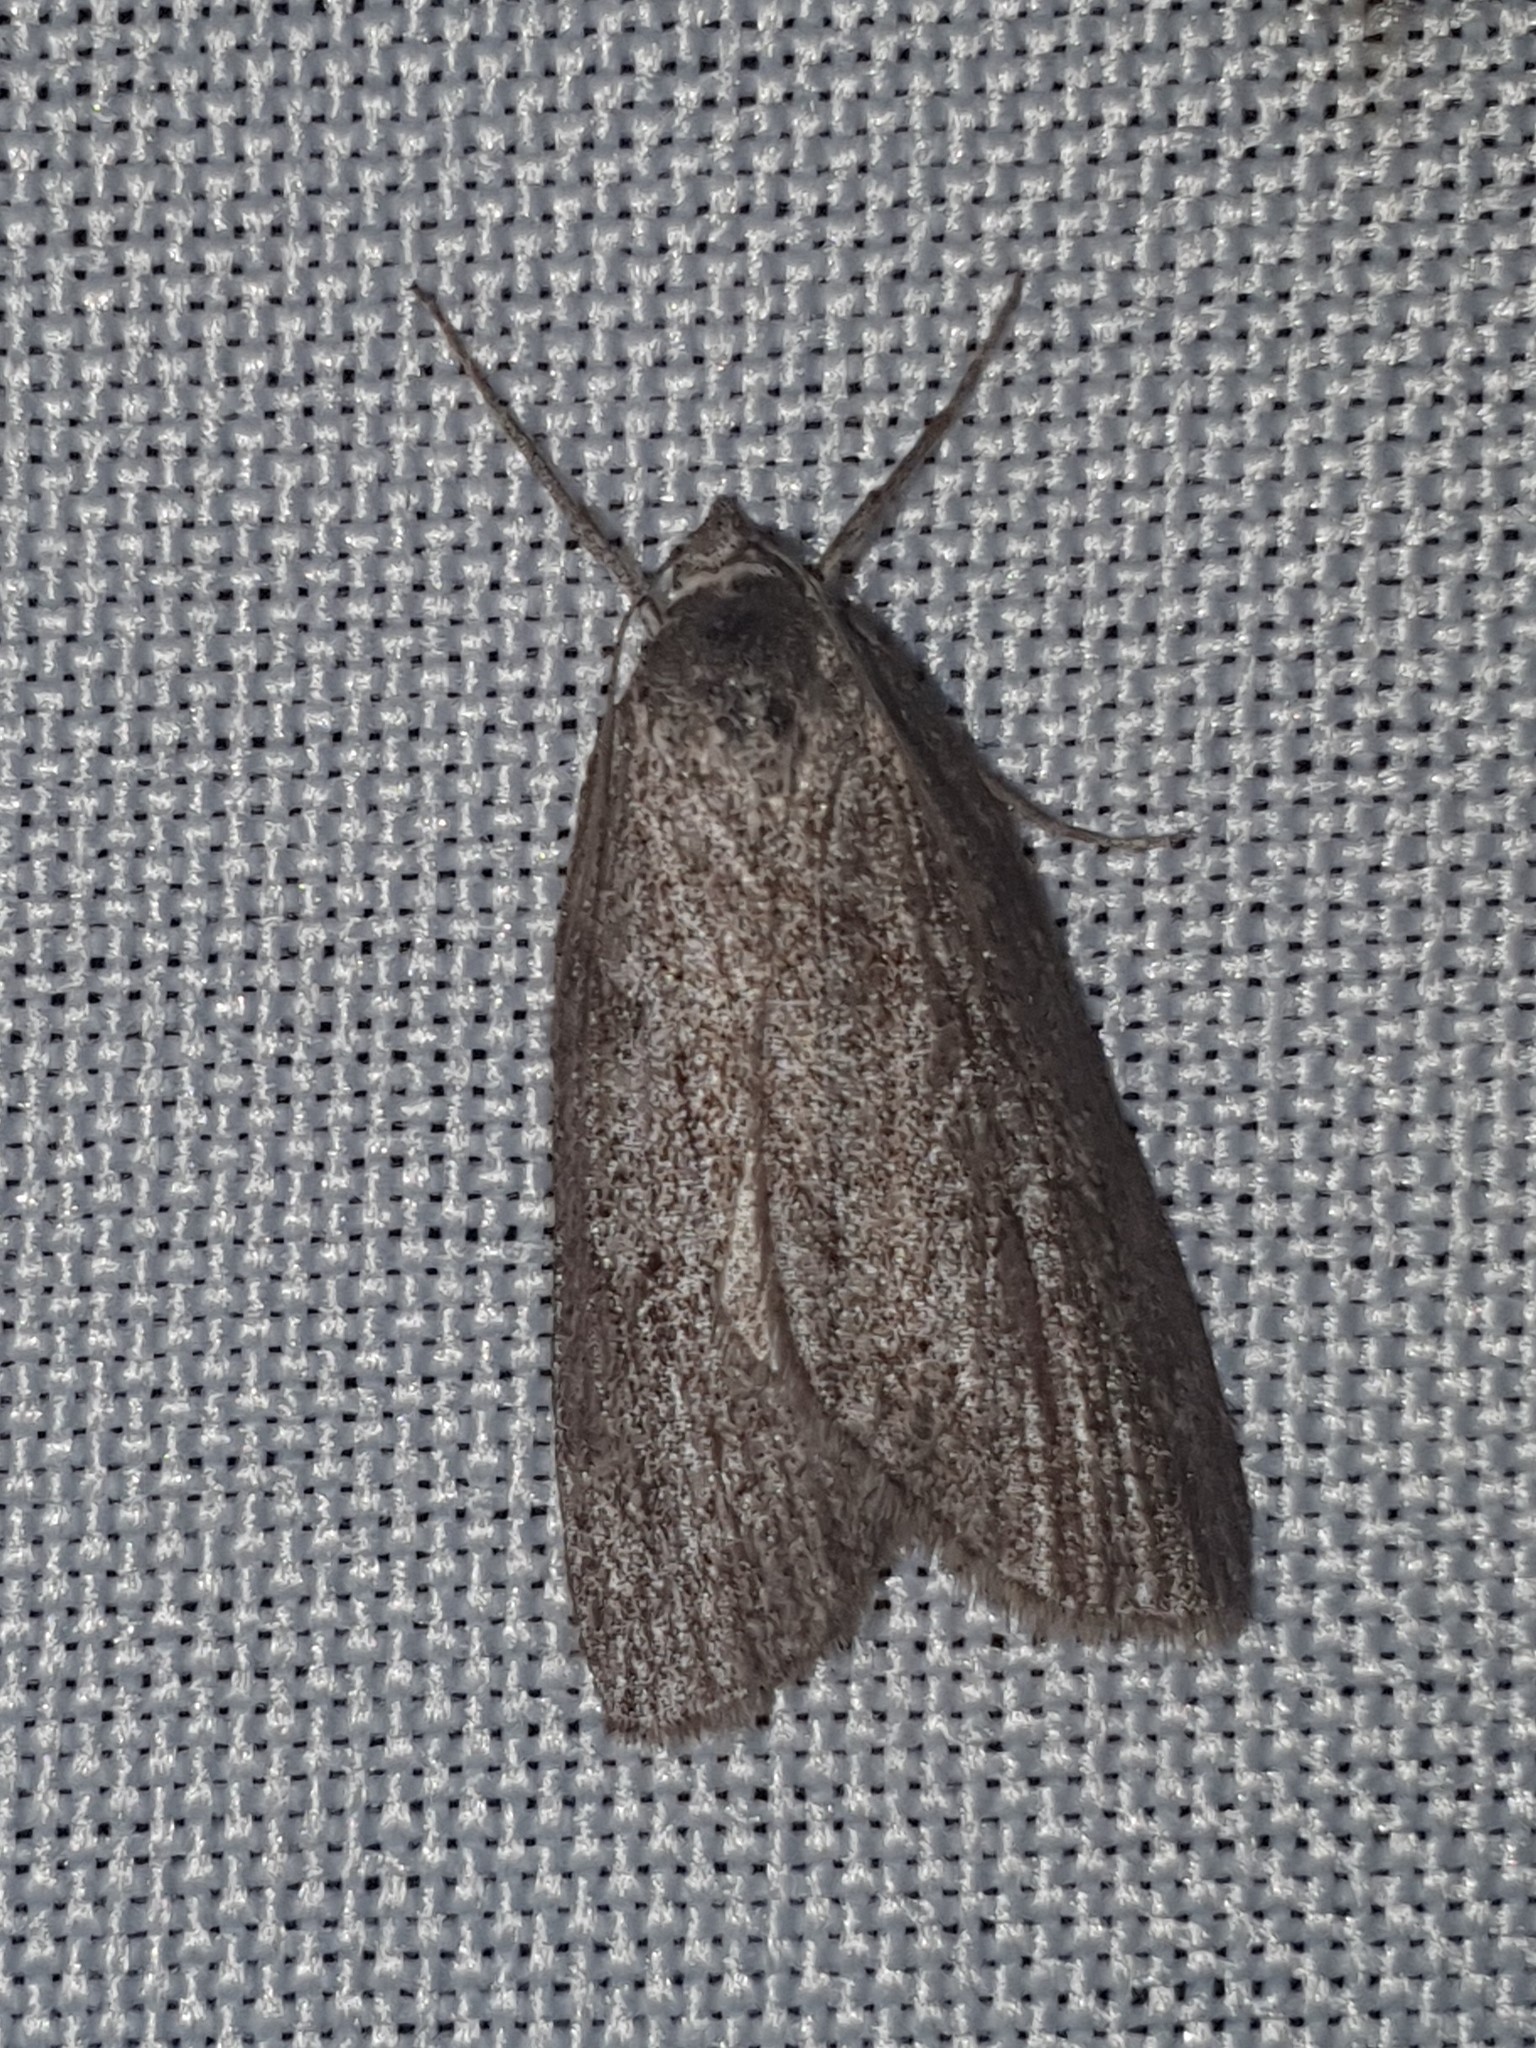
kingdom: Animalia
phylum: Arthropoda
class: Insecta
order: Lepidoptera
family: Geometridae
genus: Pachycnemia
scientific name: Pachycnemia hippocastanaria
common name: Horse chestnut
